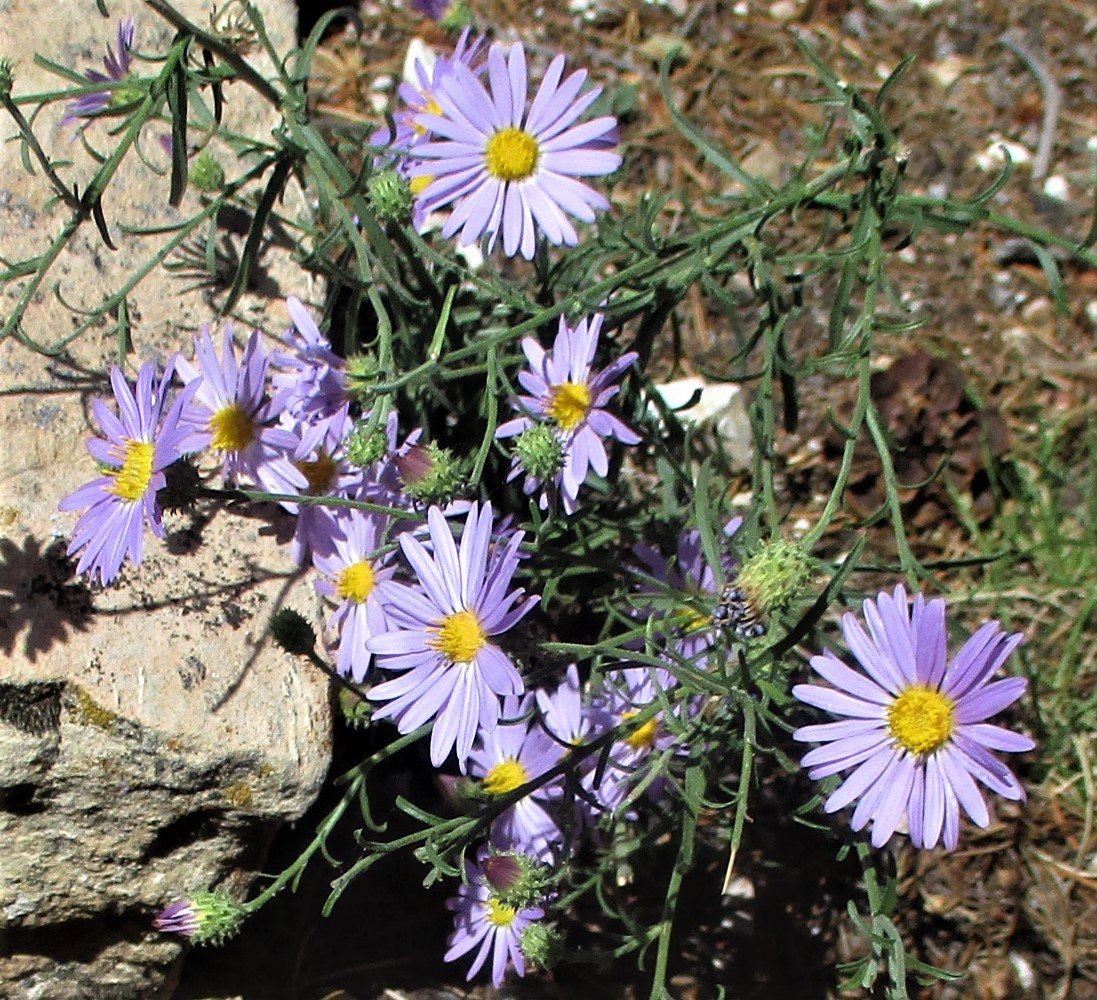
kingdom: Plantae
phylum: Tracheophyta
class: Magnoliopsida
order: Asterales
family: Asteraceae
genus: Dieteria
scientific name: Dieteria canescens
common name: Hoary-aster
